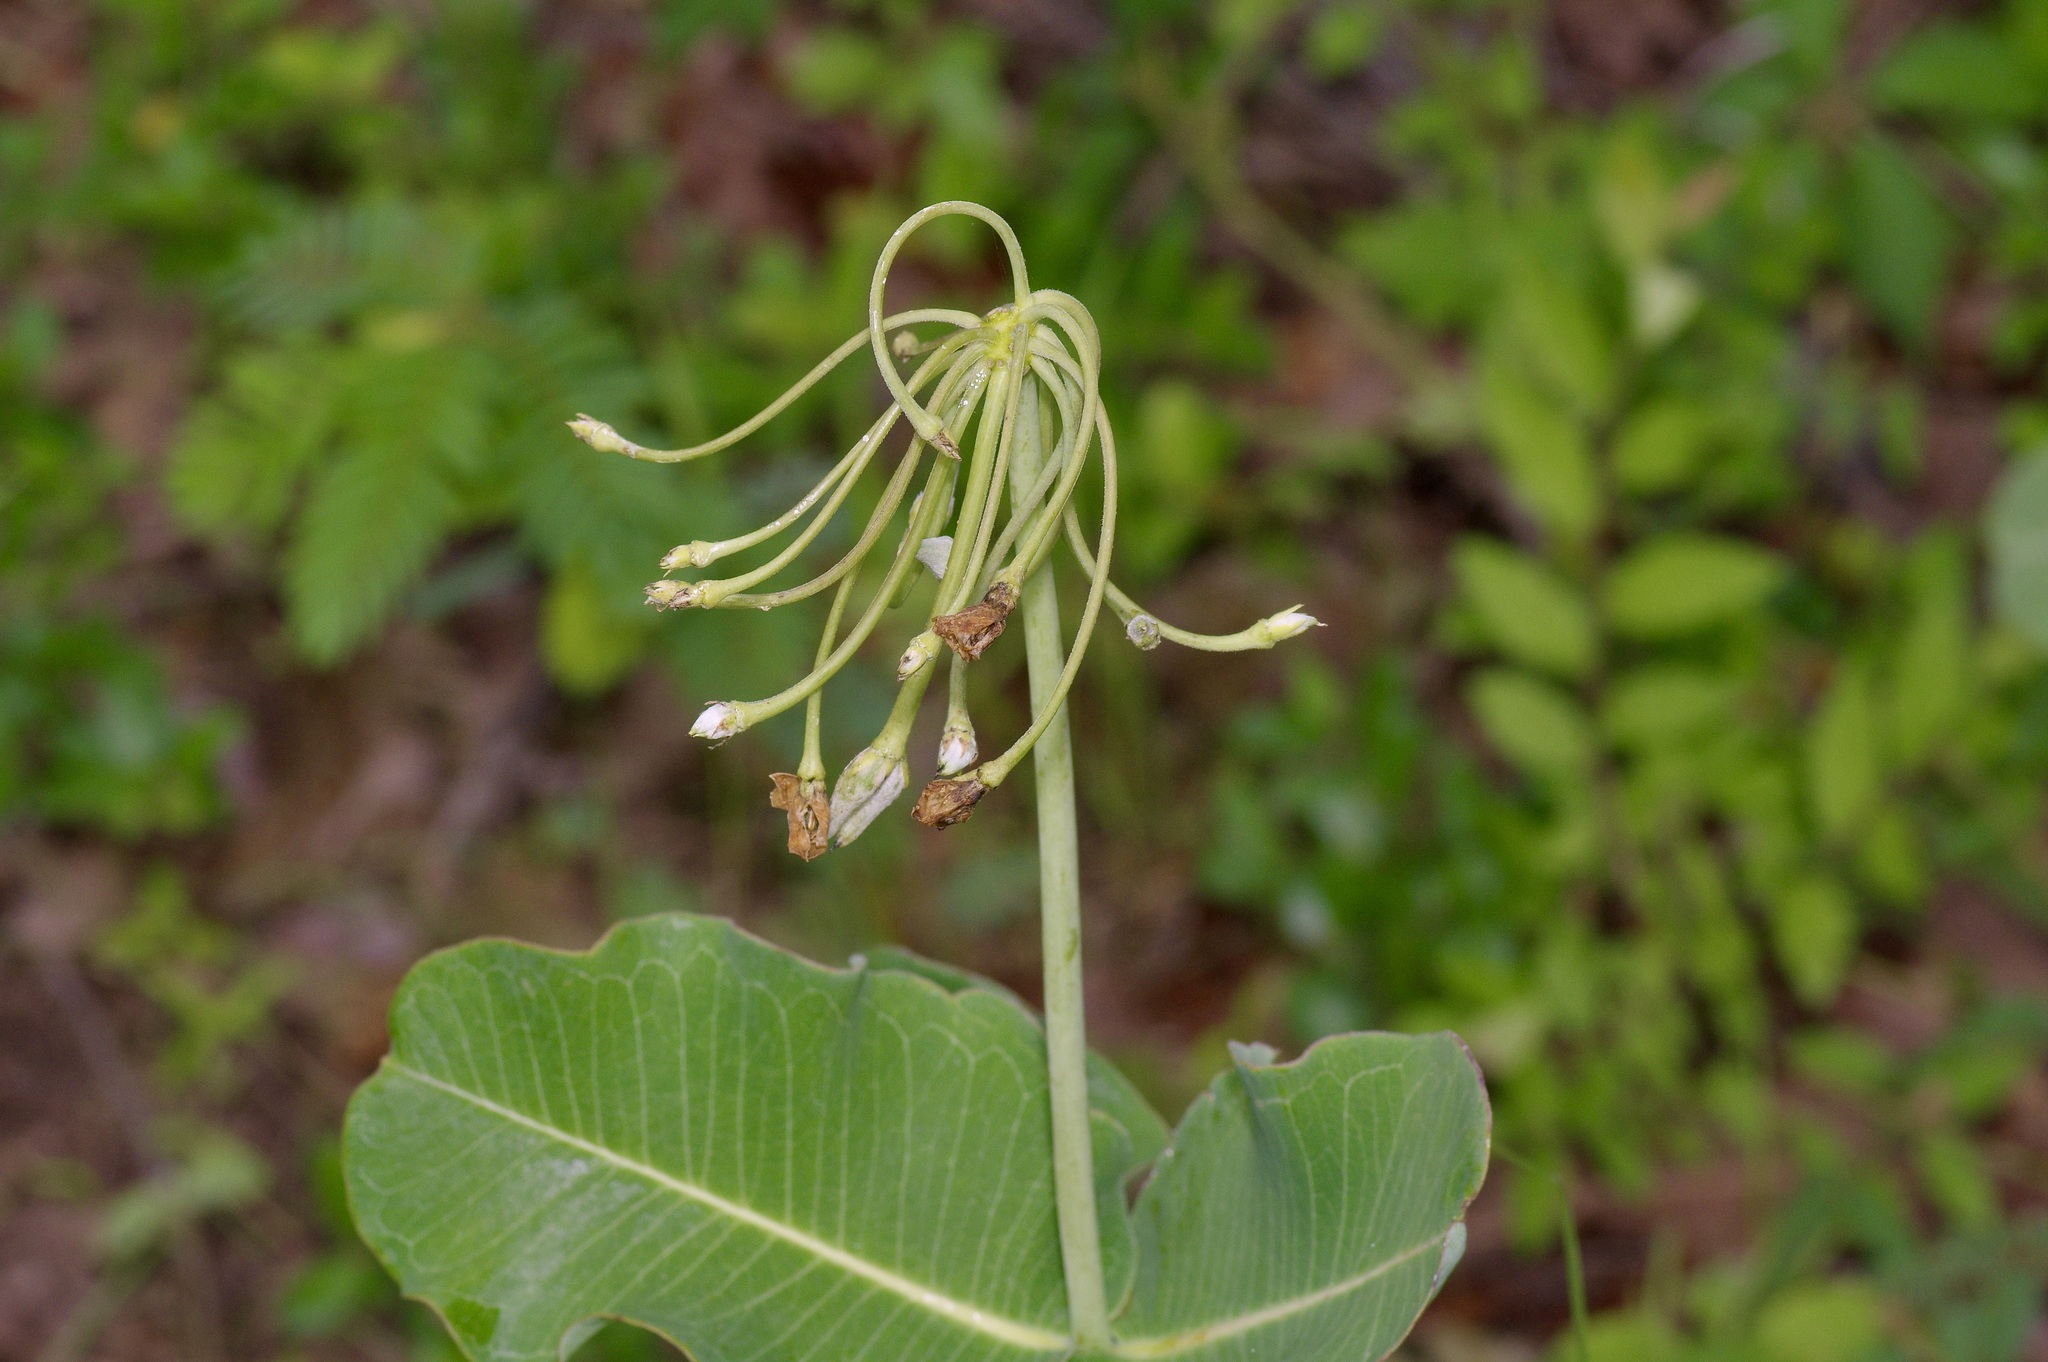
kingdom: Plantae
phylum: Tracheophyta
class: Magnoliopsida
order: Gentianales
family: Apocynaceae
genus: Asclepias
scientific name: Asclepias amplexicaulis
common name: Blunt-leaf milkweed
